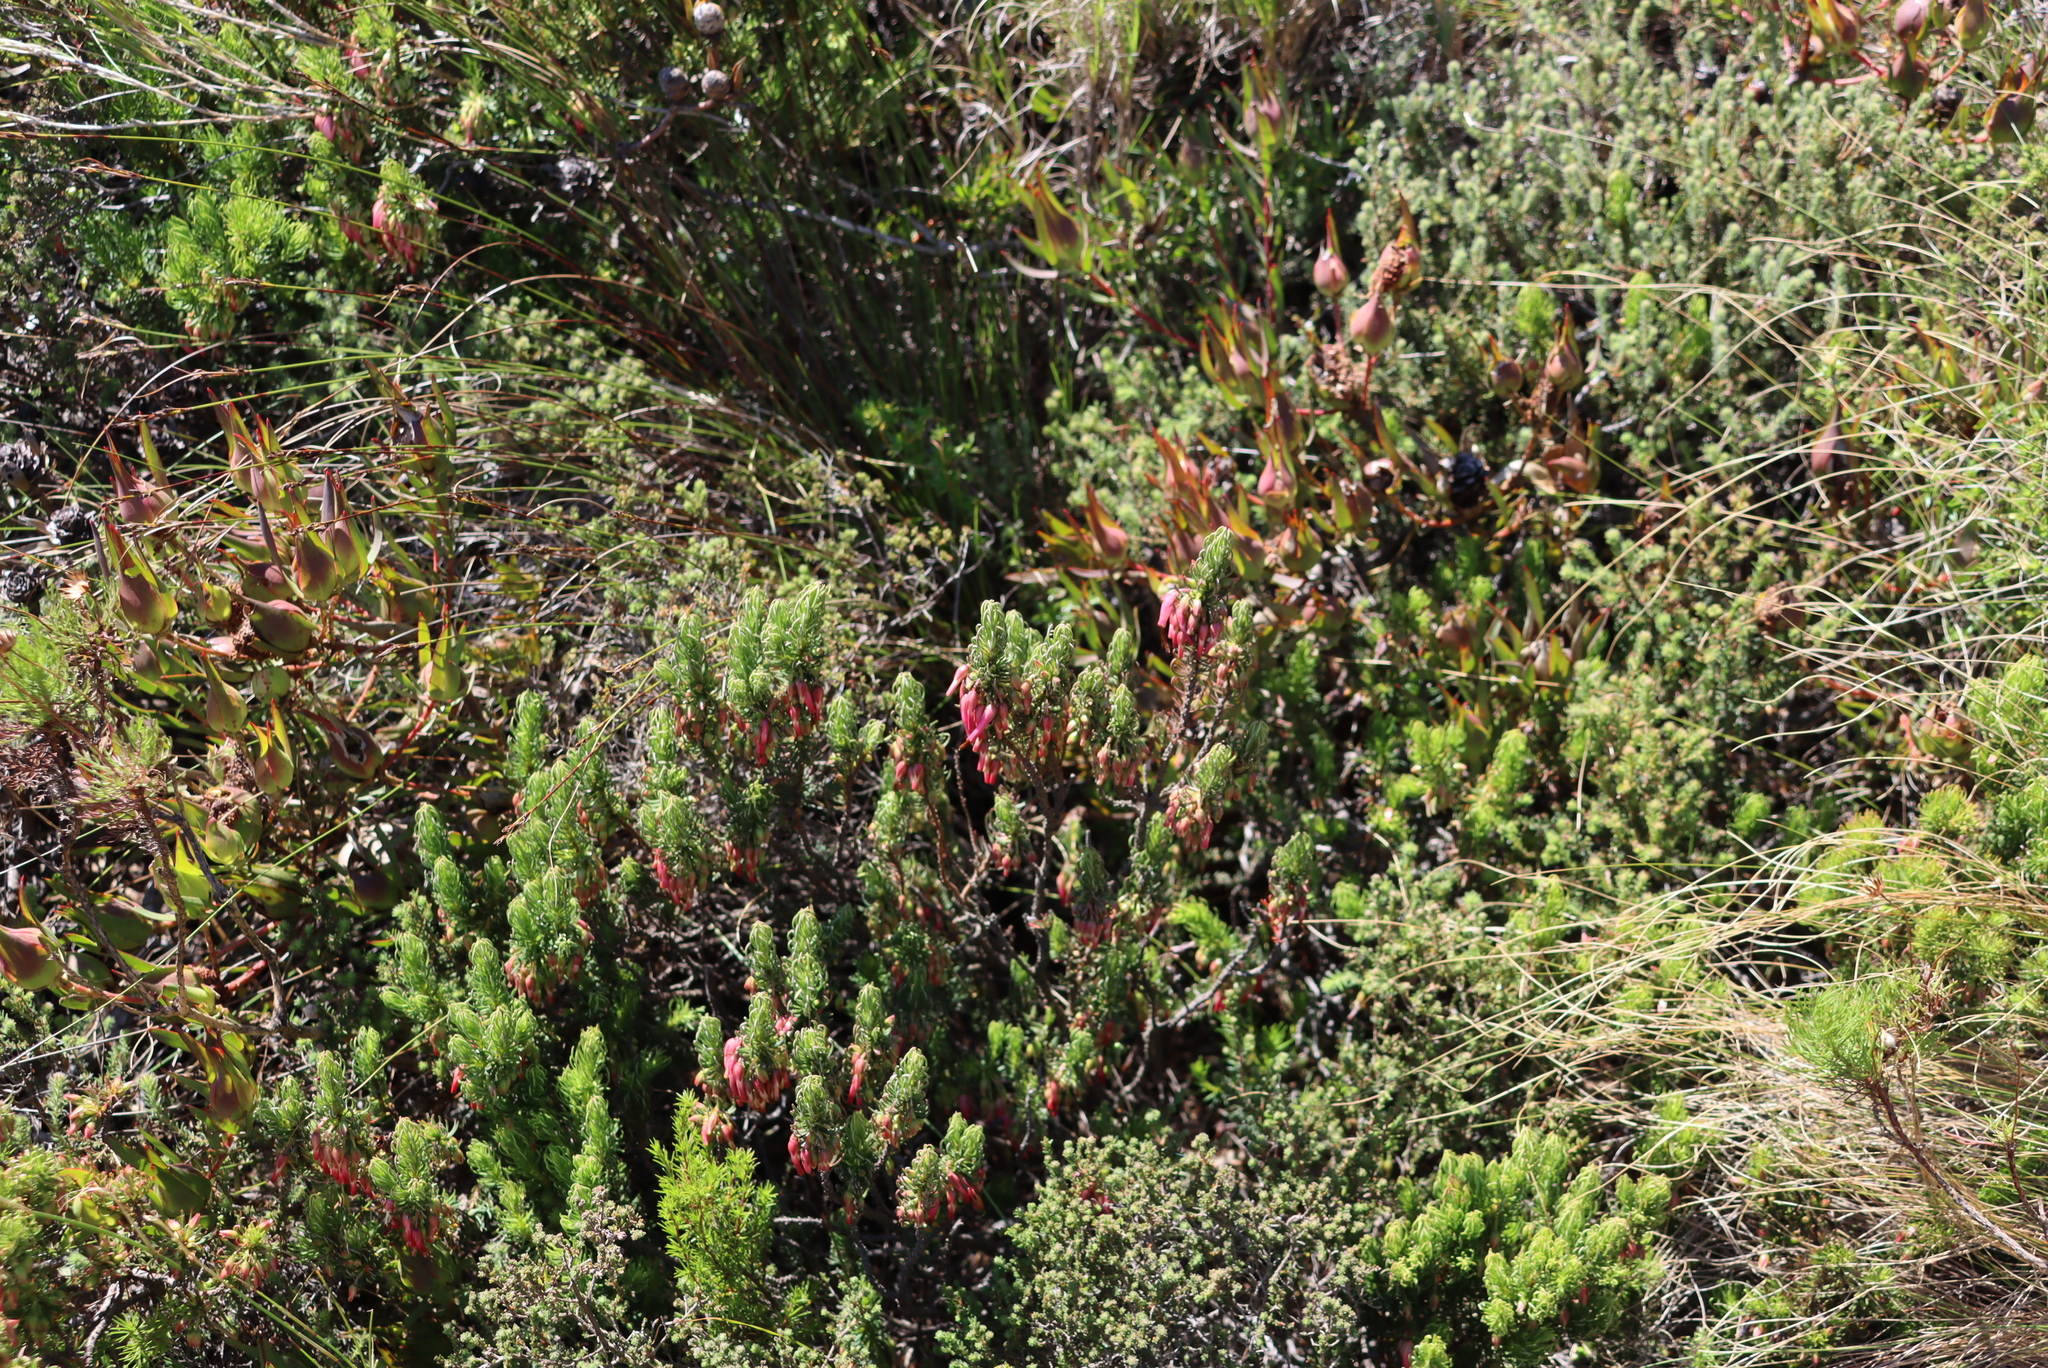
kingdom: Plantae
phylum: Tracheophyta
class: Magnoliopsida
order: Proteales
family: Proteaceae
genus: Leucadendron
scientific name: Leucadendron salignum
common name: Common sunshine conebush
